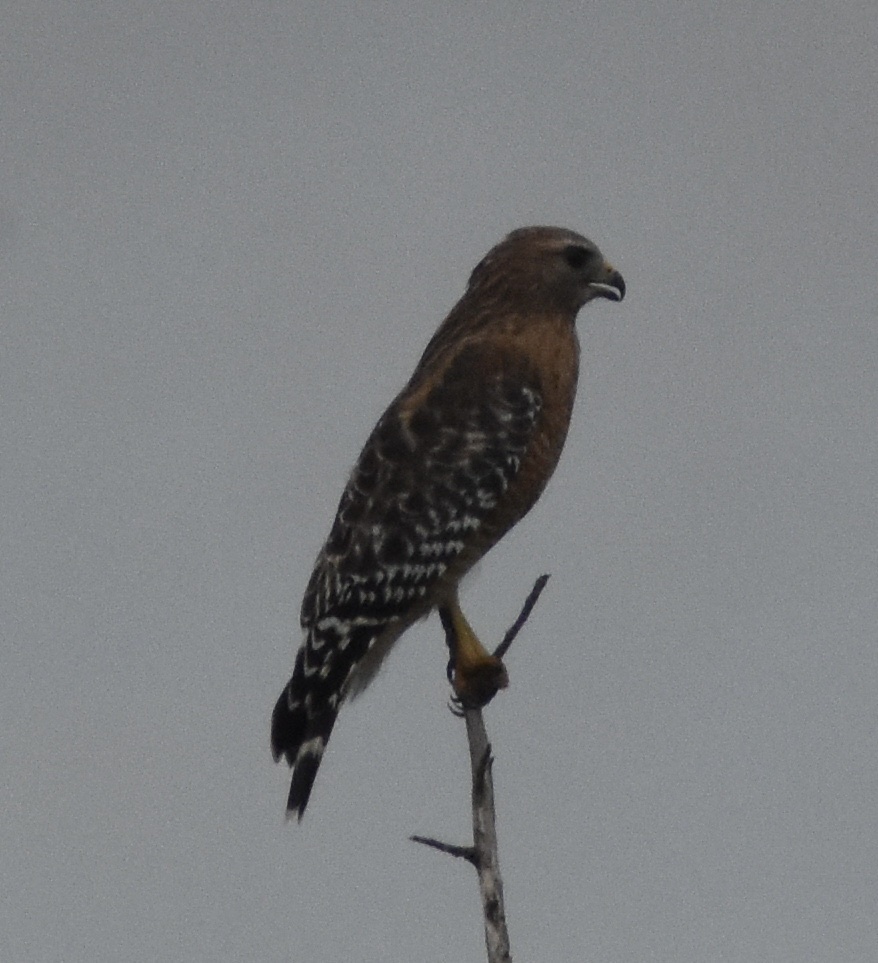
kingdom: Animalia
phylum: Chordata
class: Aves
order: Accipitriformes
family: Accipitridae
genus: Buteo
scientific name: Buteo lineatus
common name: Red-shouldered hawk
